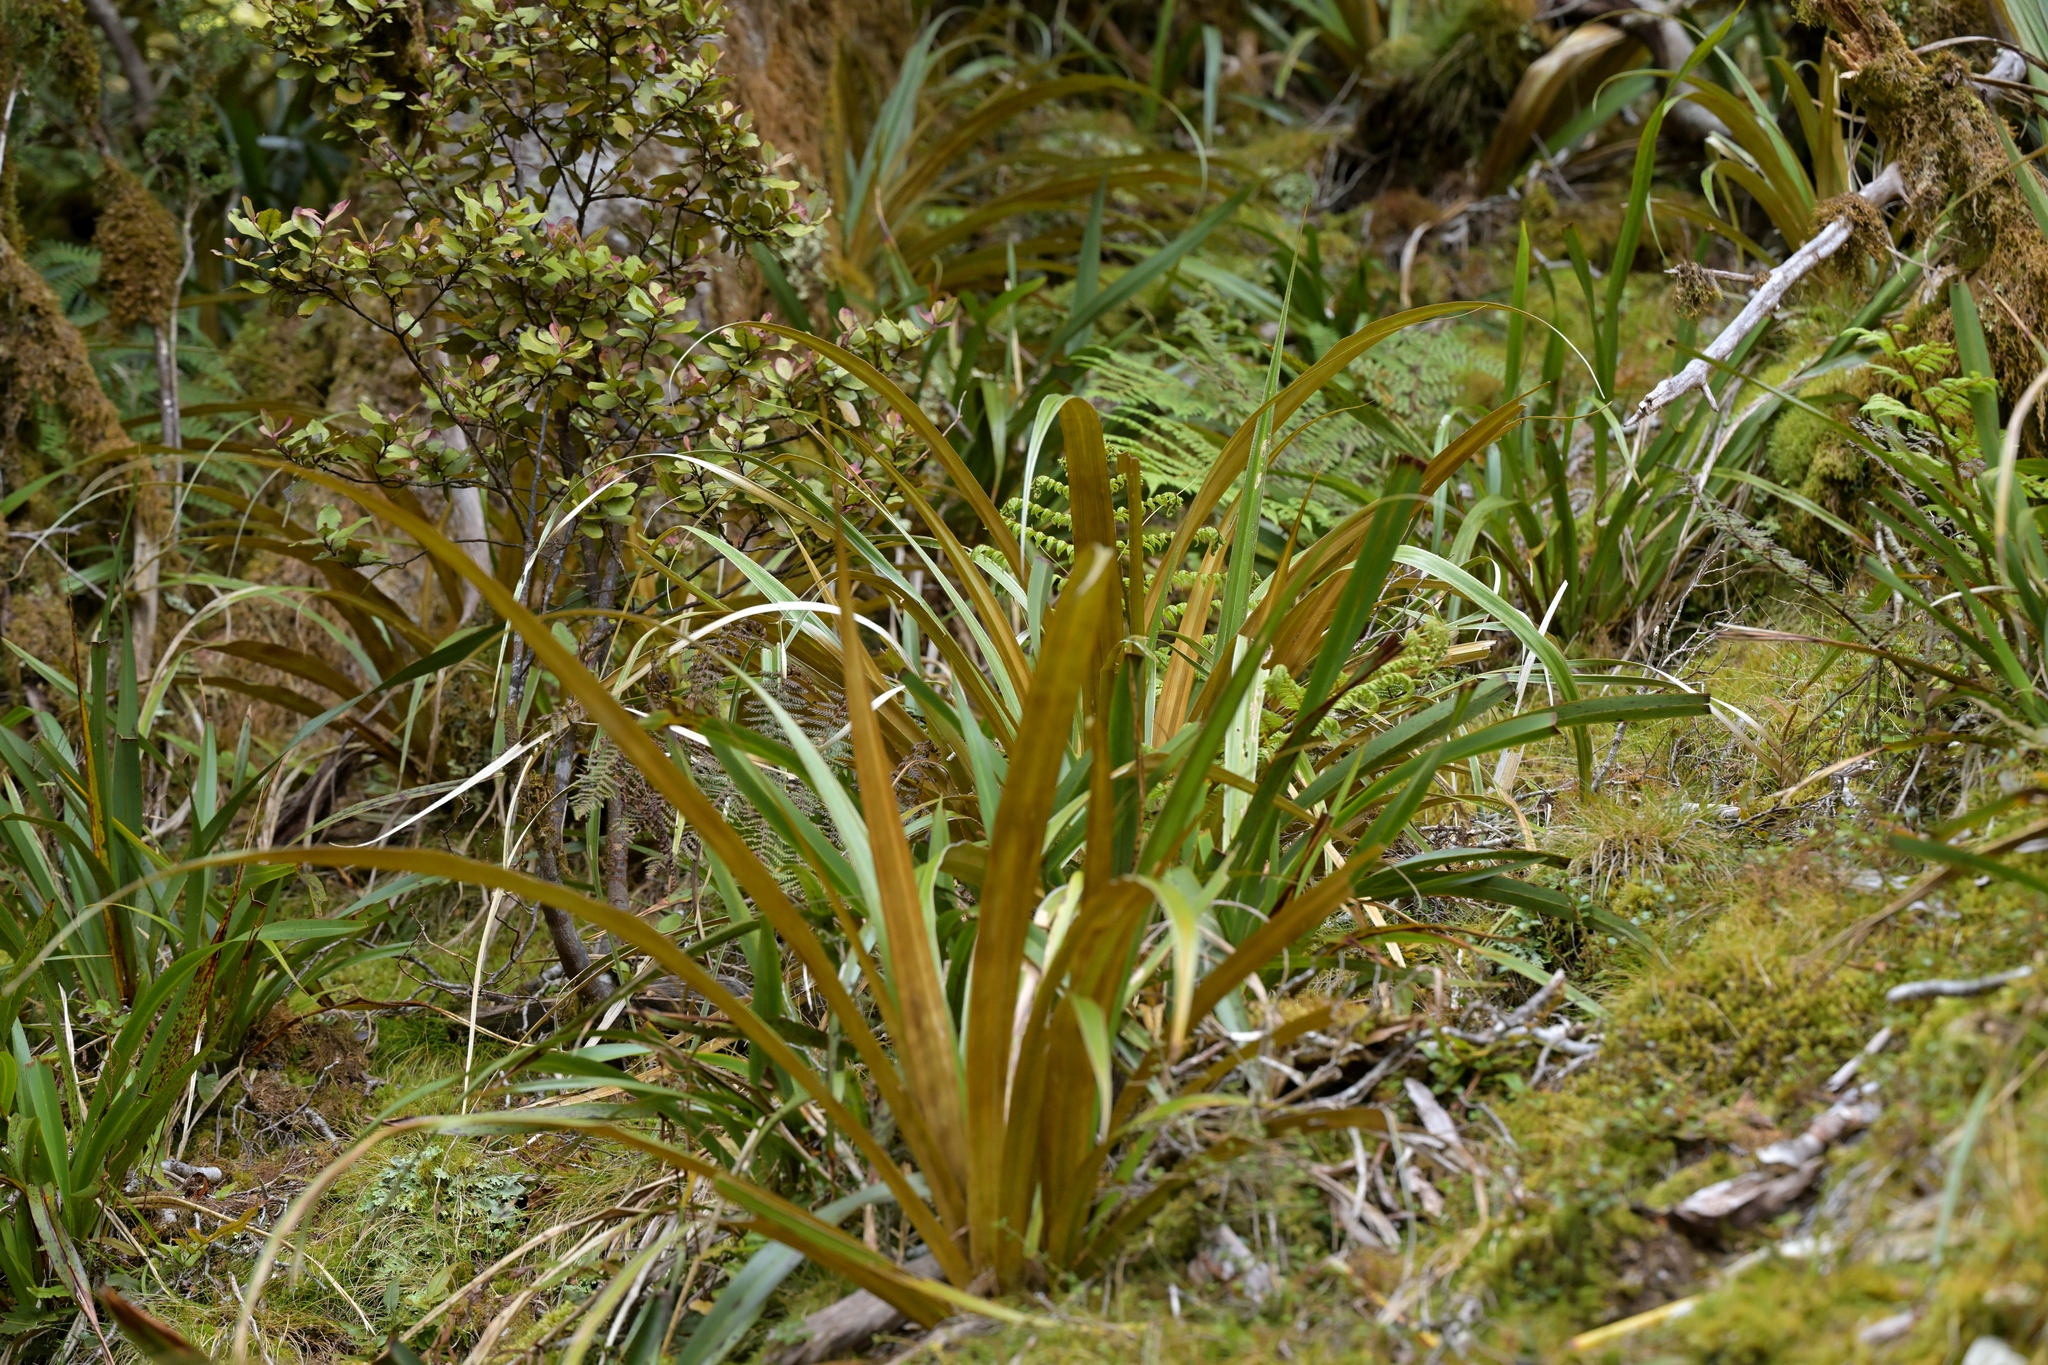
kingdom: Plantae
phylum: Tracheophyta
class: Liliopsida
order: Asparagales
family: Asteliaceae
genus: Astelia
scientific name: Astelia nivicola
